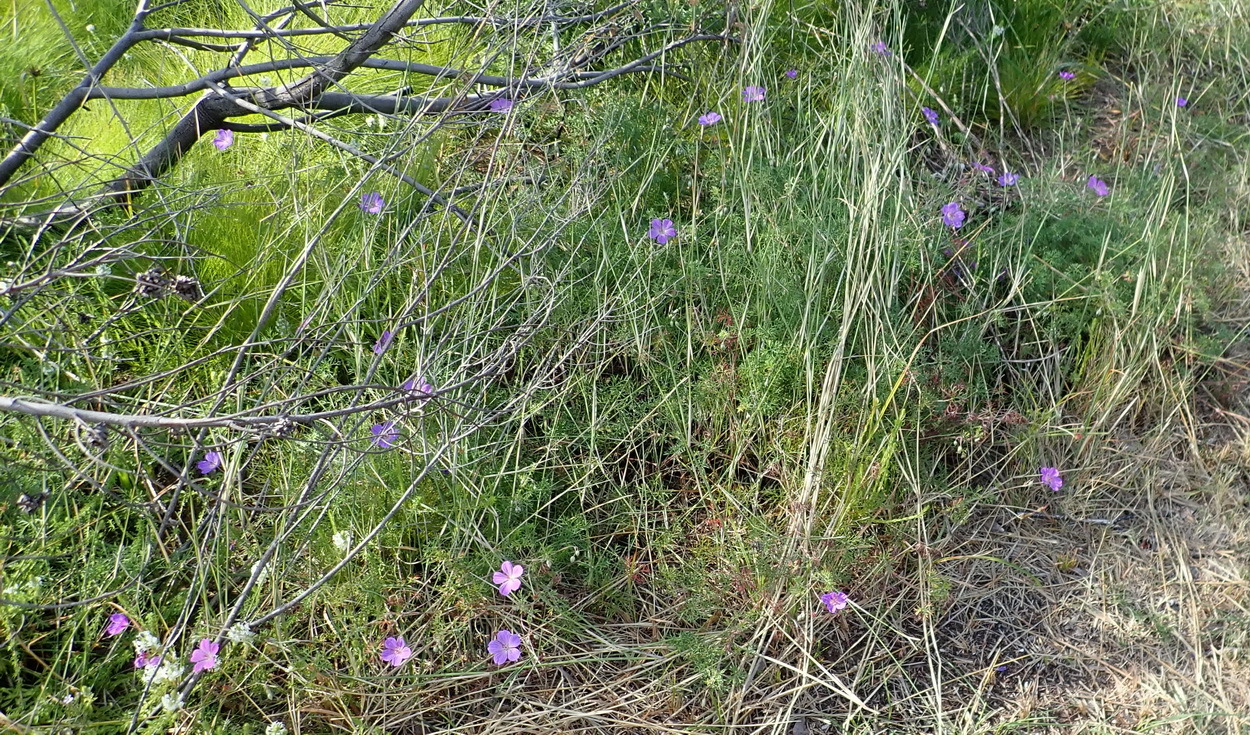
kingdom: Plantae
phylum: Tracheophyta
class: Magnoliopsida
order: Geraniales
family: Geraniaceae
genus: Geranium
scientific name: Geranium incanum
